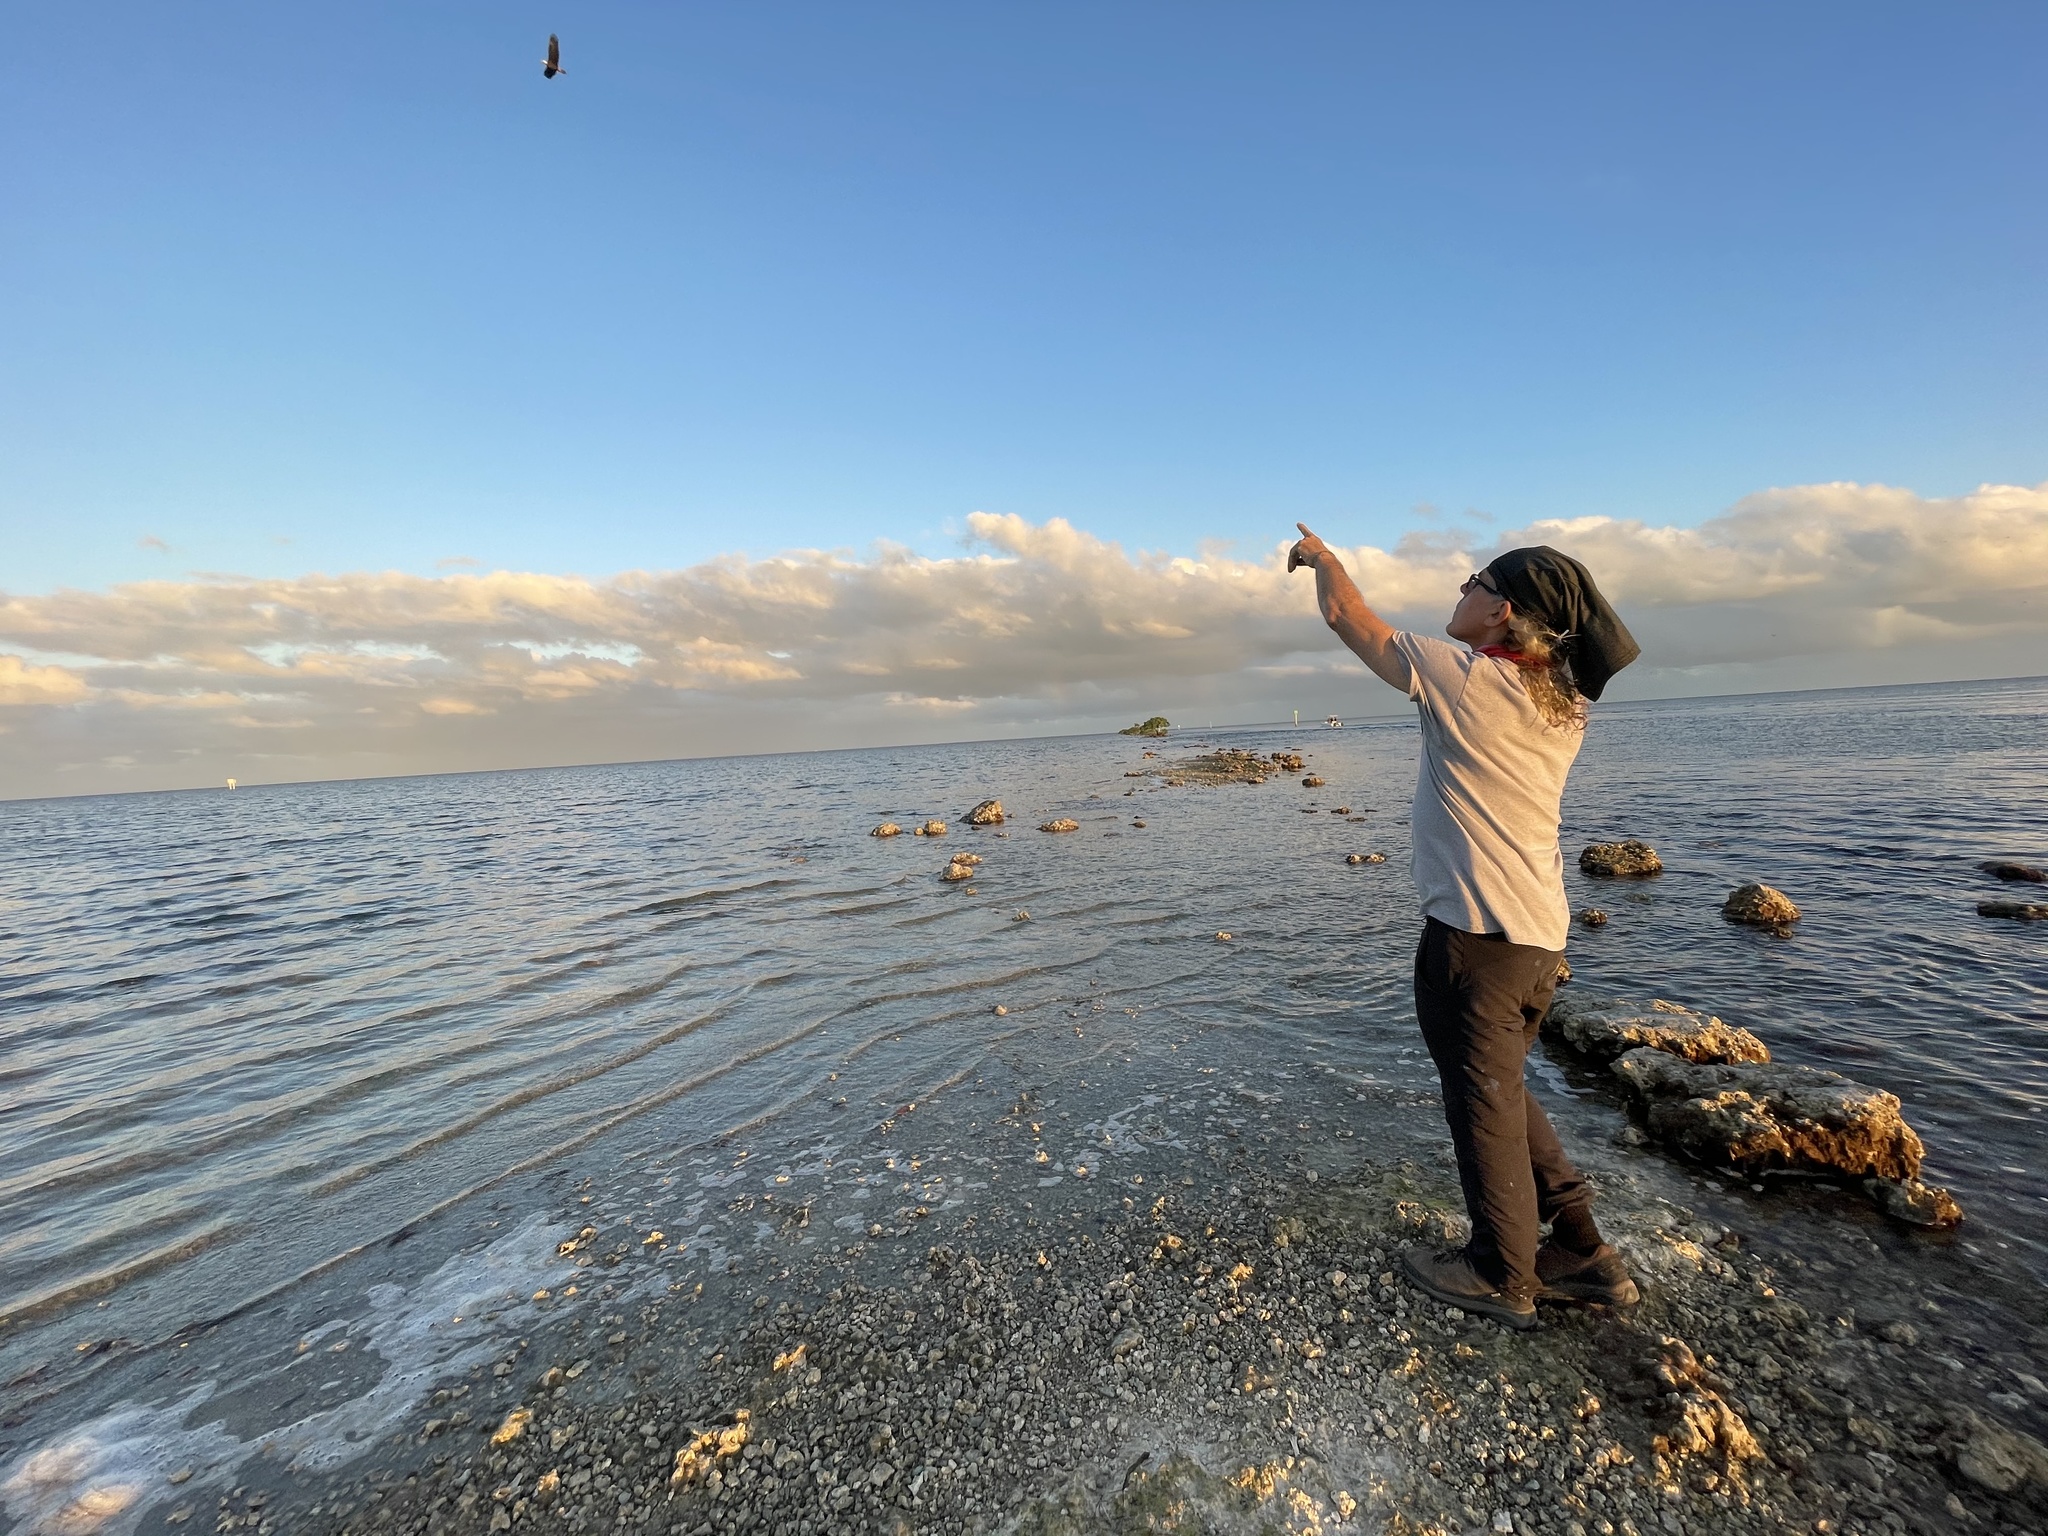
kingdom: Animalia
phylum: Chordata
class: Aves
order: Accipitriformes
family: Accipitridae
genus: Haliaeetus
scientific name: Haliaeetus leucocephalus
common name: Bald eagle
